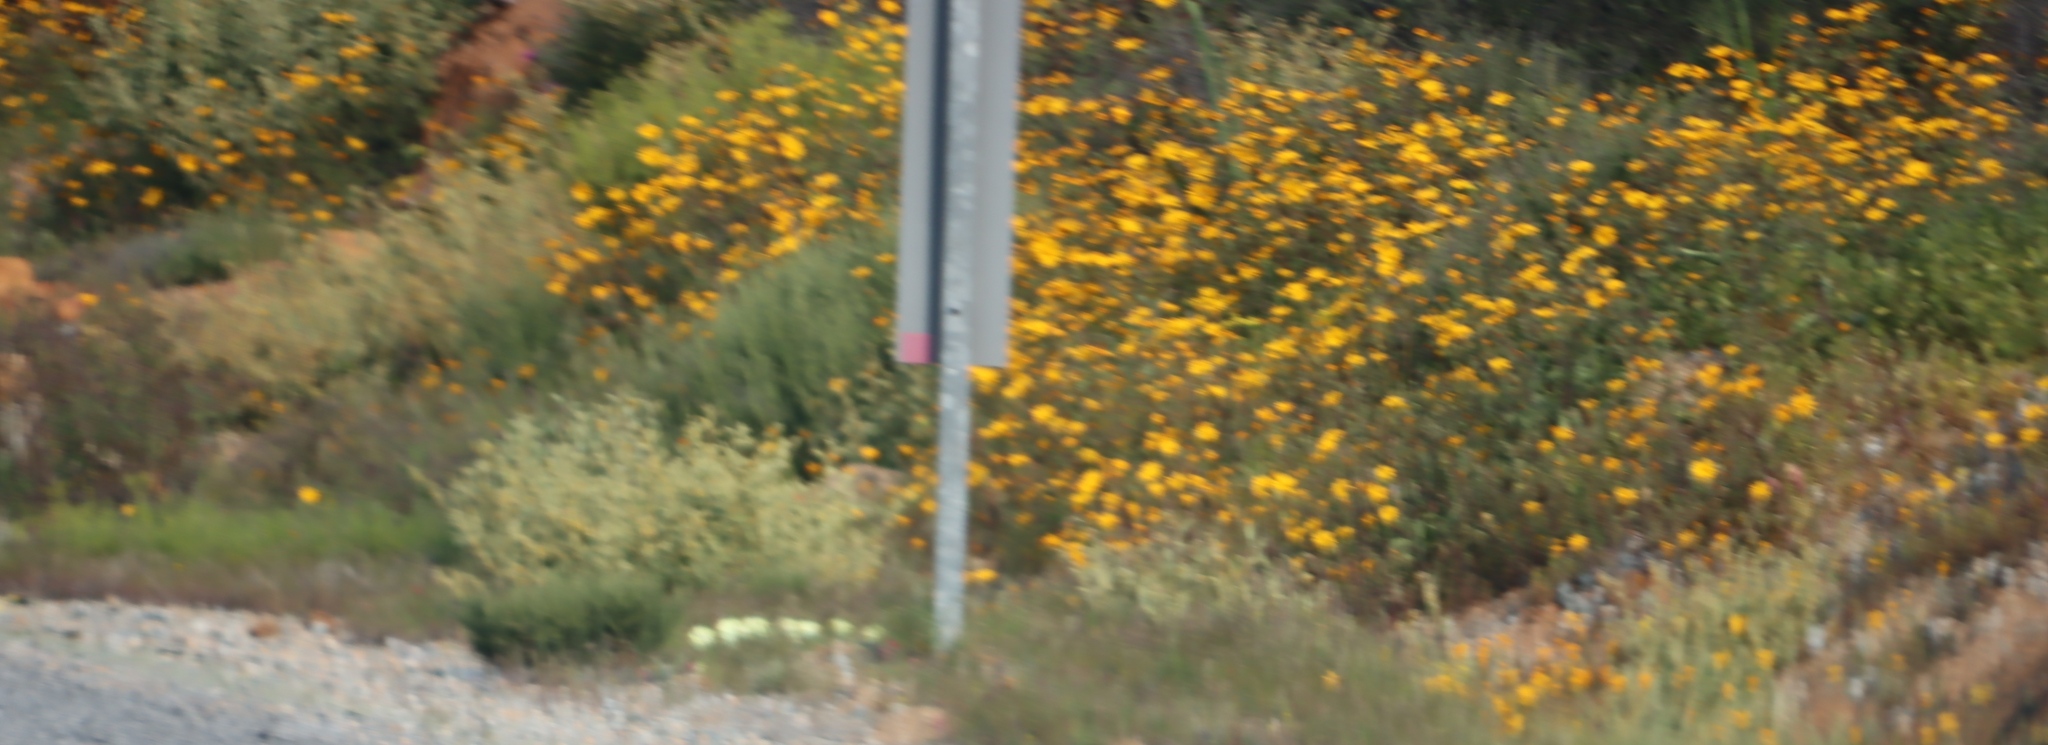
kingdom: Plantae
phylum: Tracheophyta
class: Magnoliopsida
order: Asterales
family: Asteraceae
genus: Dimorphotheca
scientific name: Dimorphotheca sinuata
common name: Glandular cape marigold
